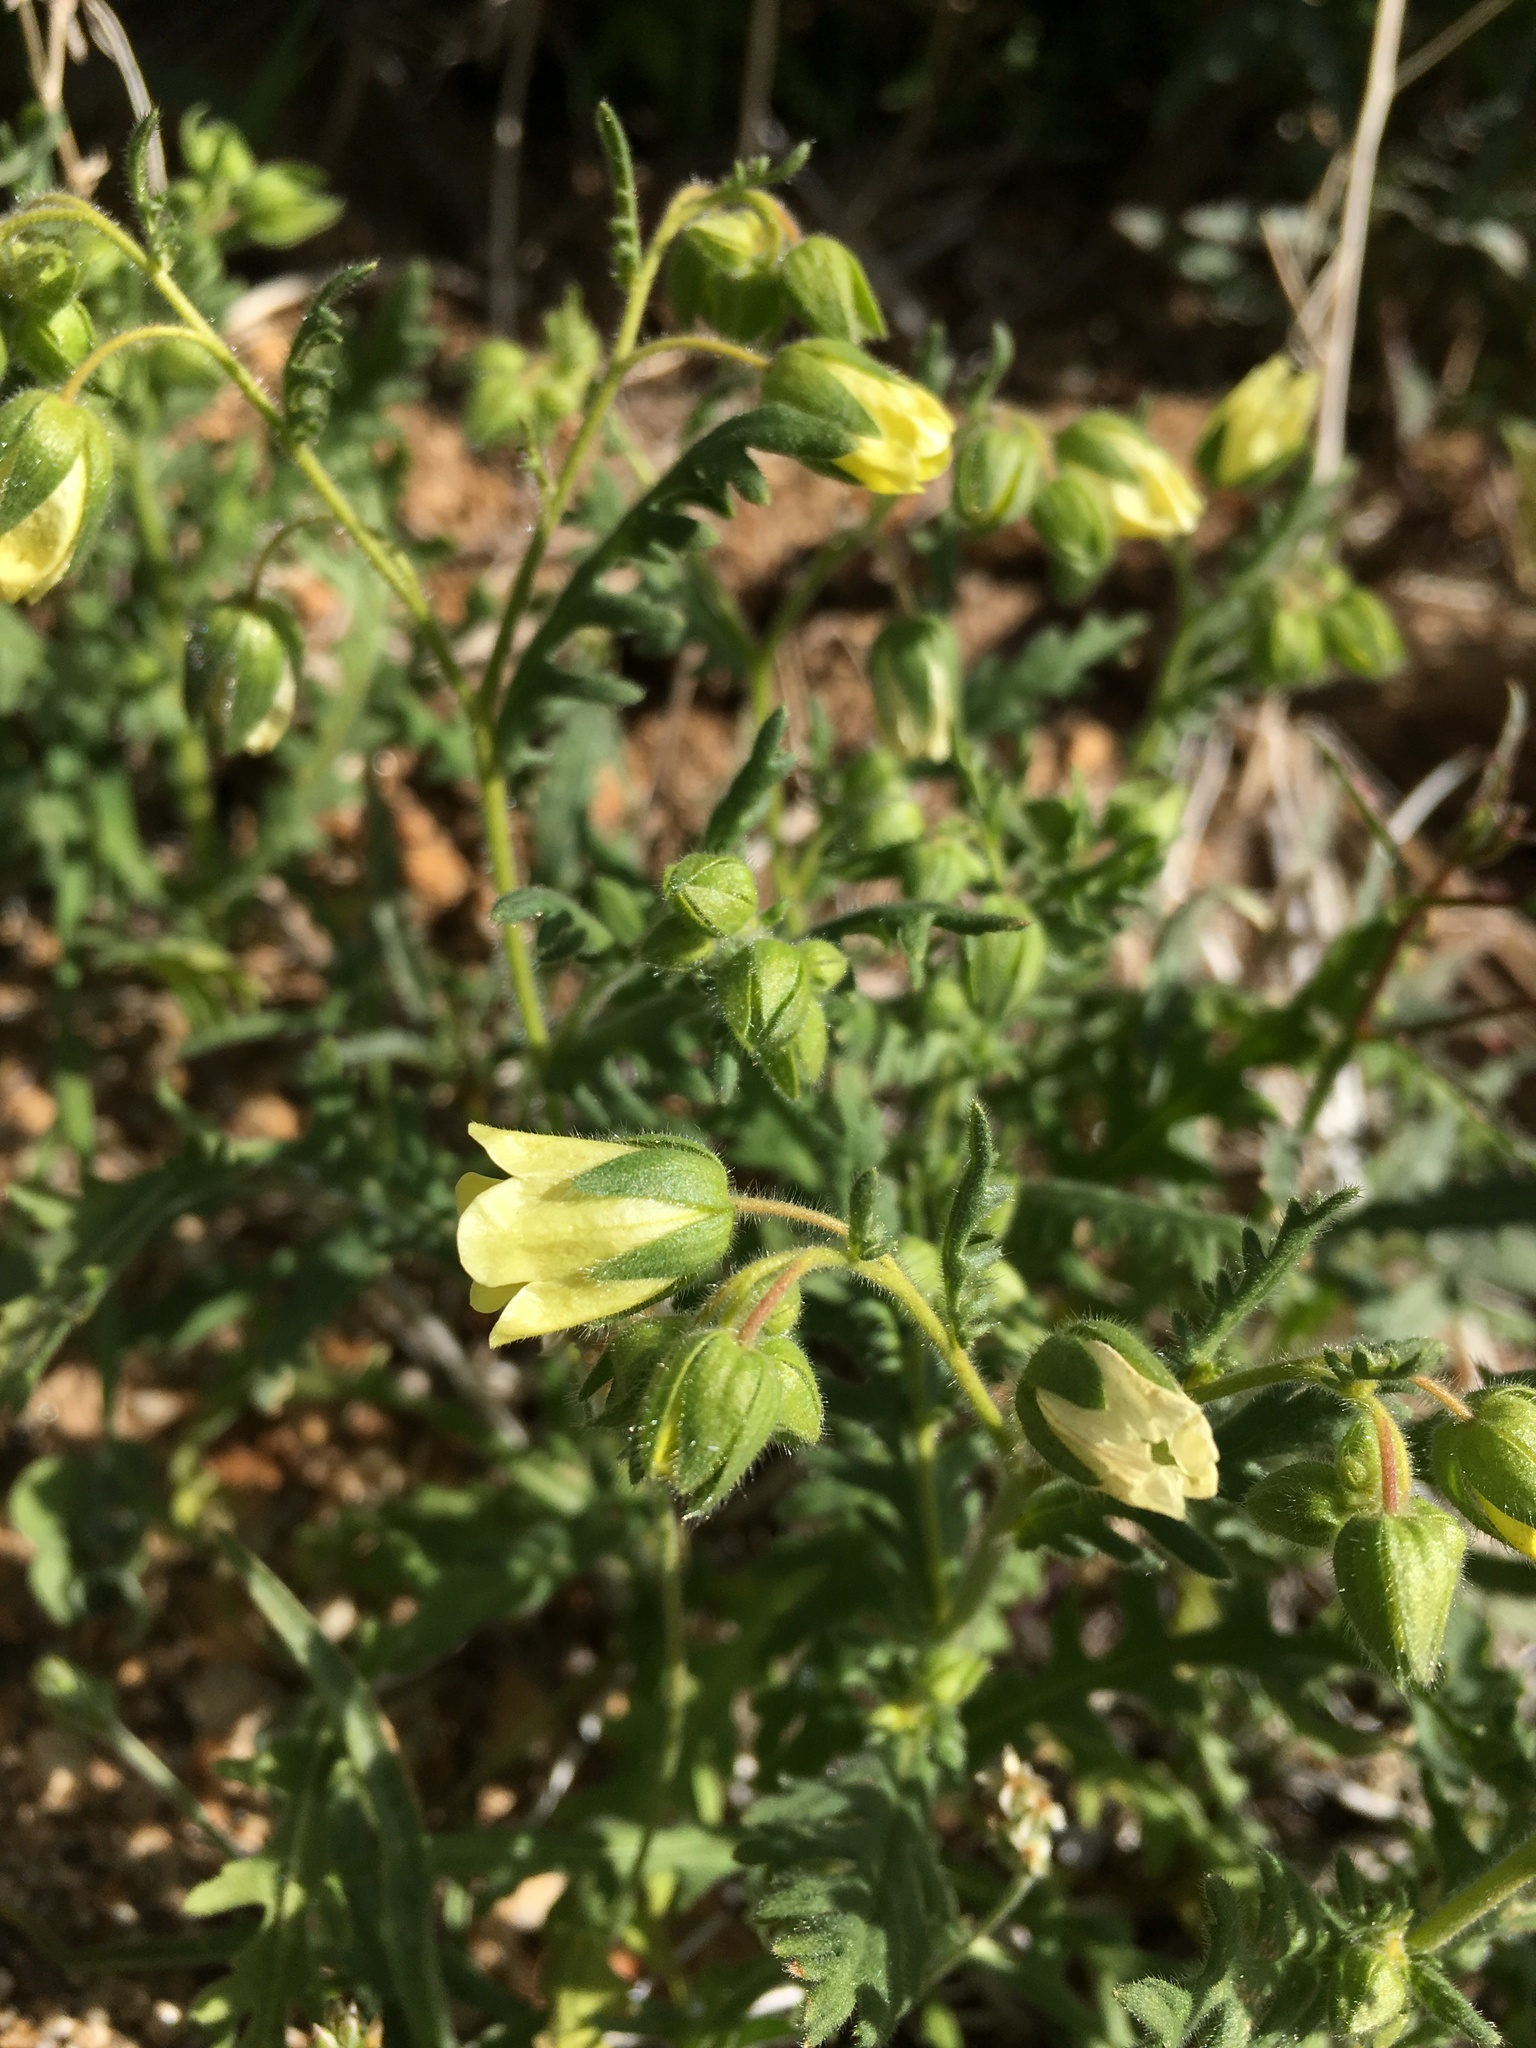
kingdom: Plantae
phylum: Tracheophyta
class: Magnoliopsida
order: Boraginales
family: Hydrophyllaceae
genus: Emmenanthe
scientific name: Emmenanthe penduliflora
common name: Whispering-bells
